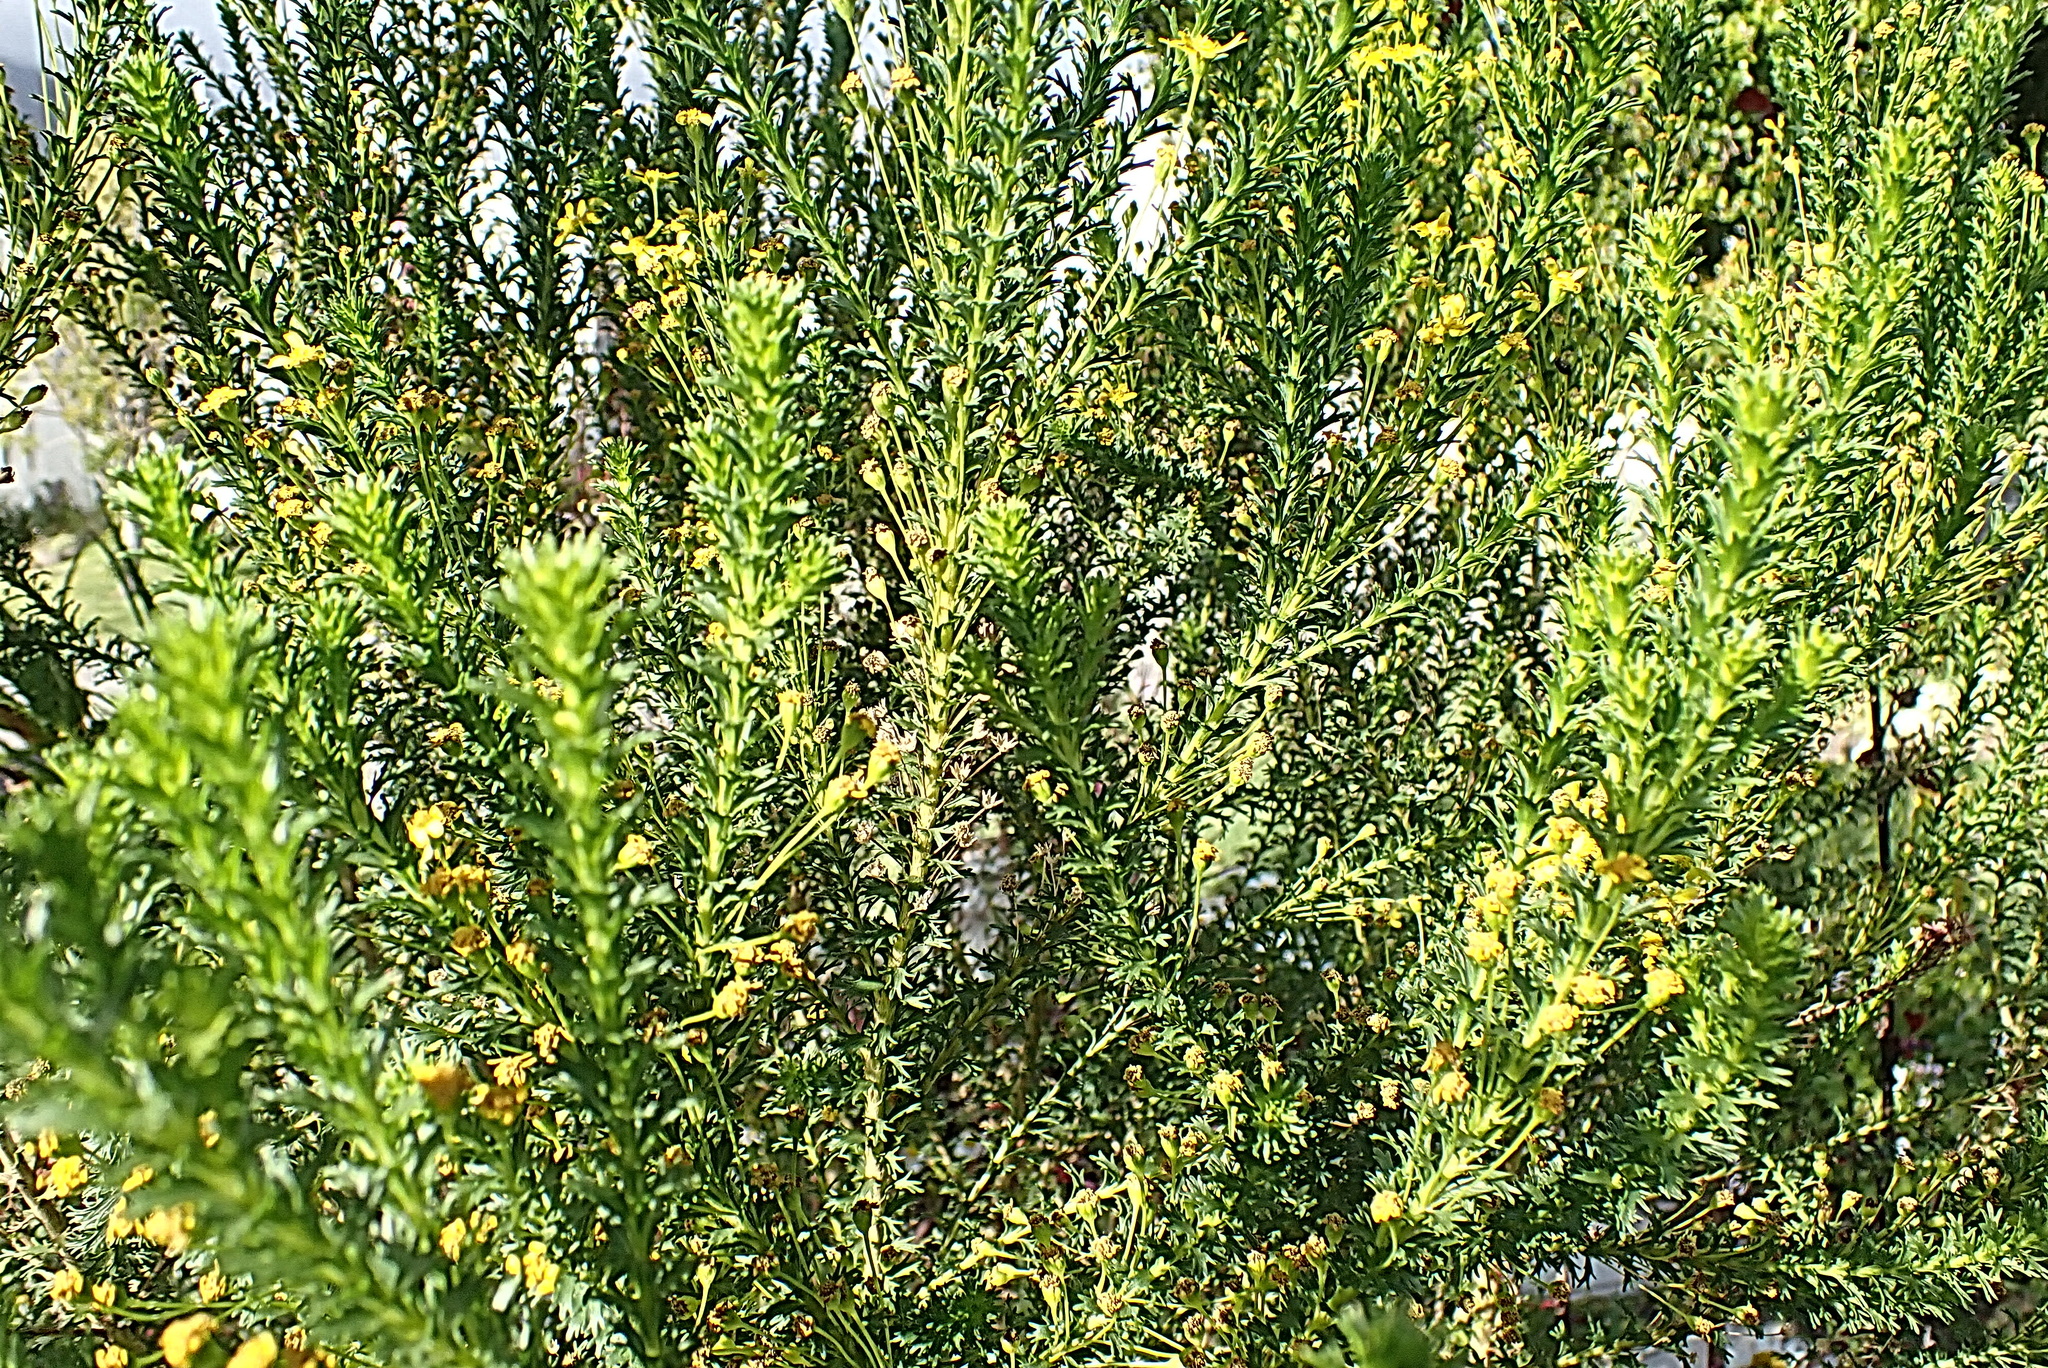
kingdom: Plantae
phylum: Tracheophyta
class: Magnoliopsida
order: Asterales
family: Asteraceae
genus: Euryops
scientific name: Euryops virgineus
